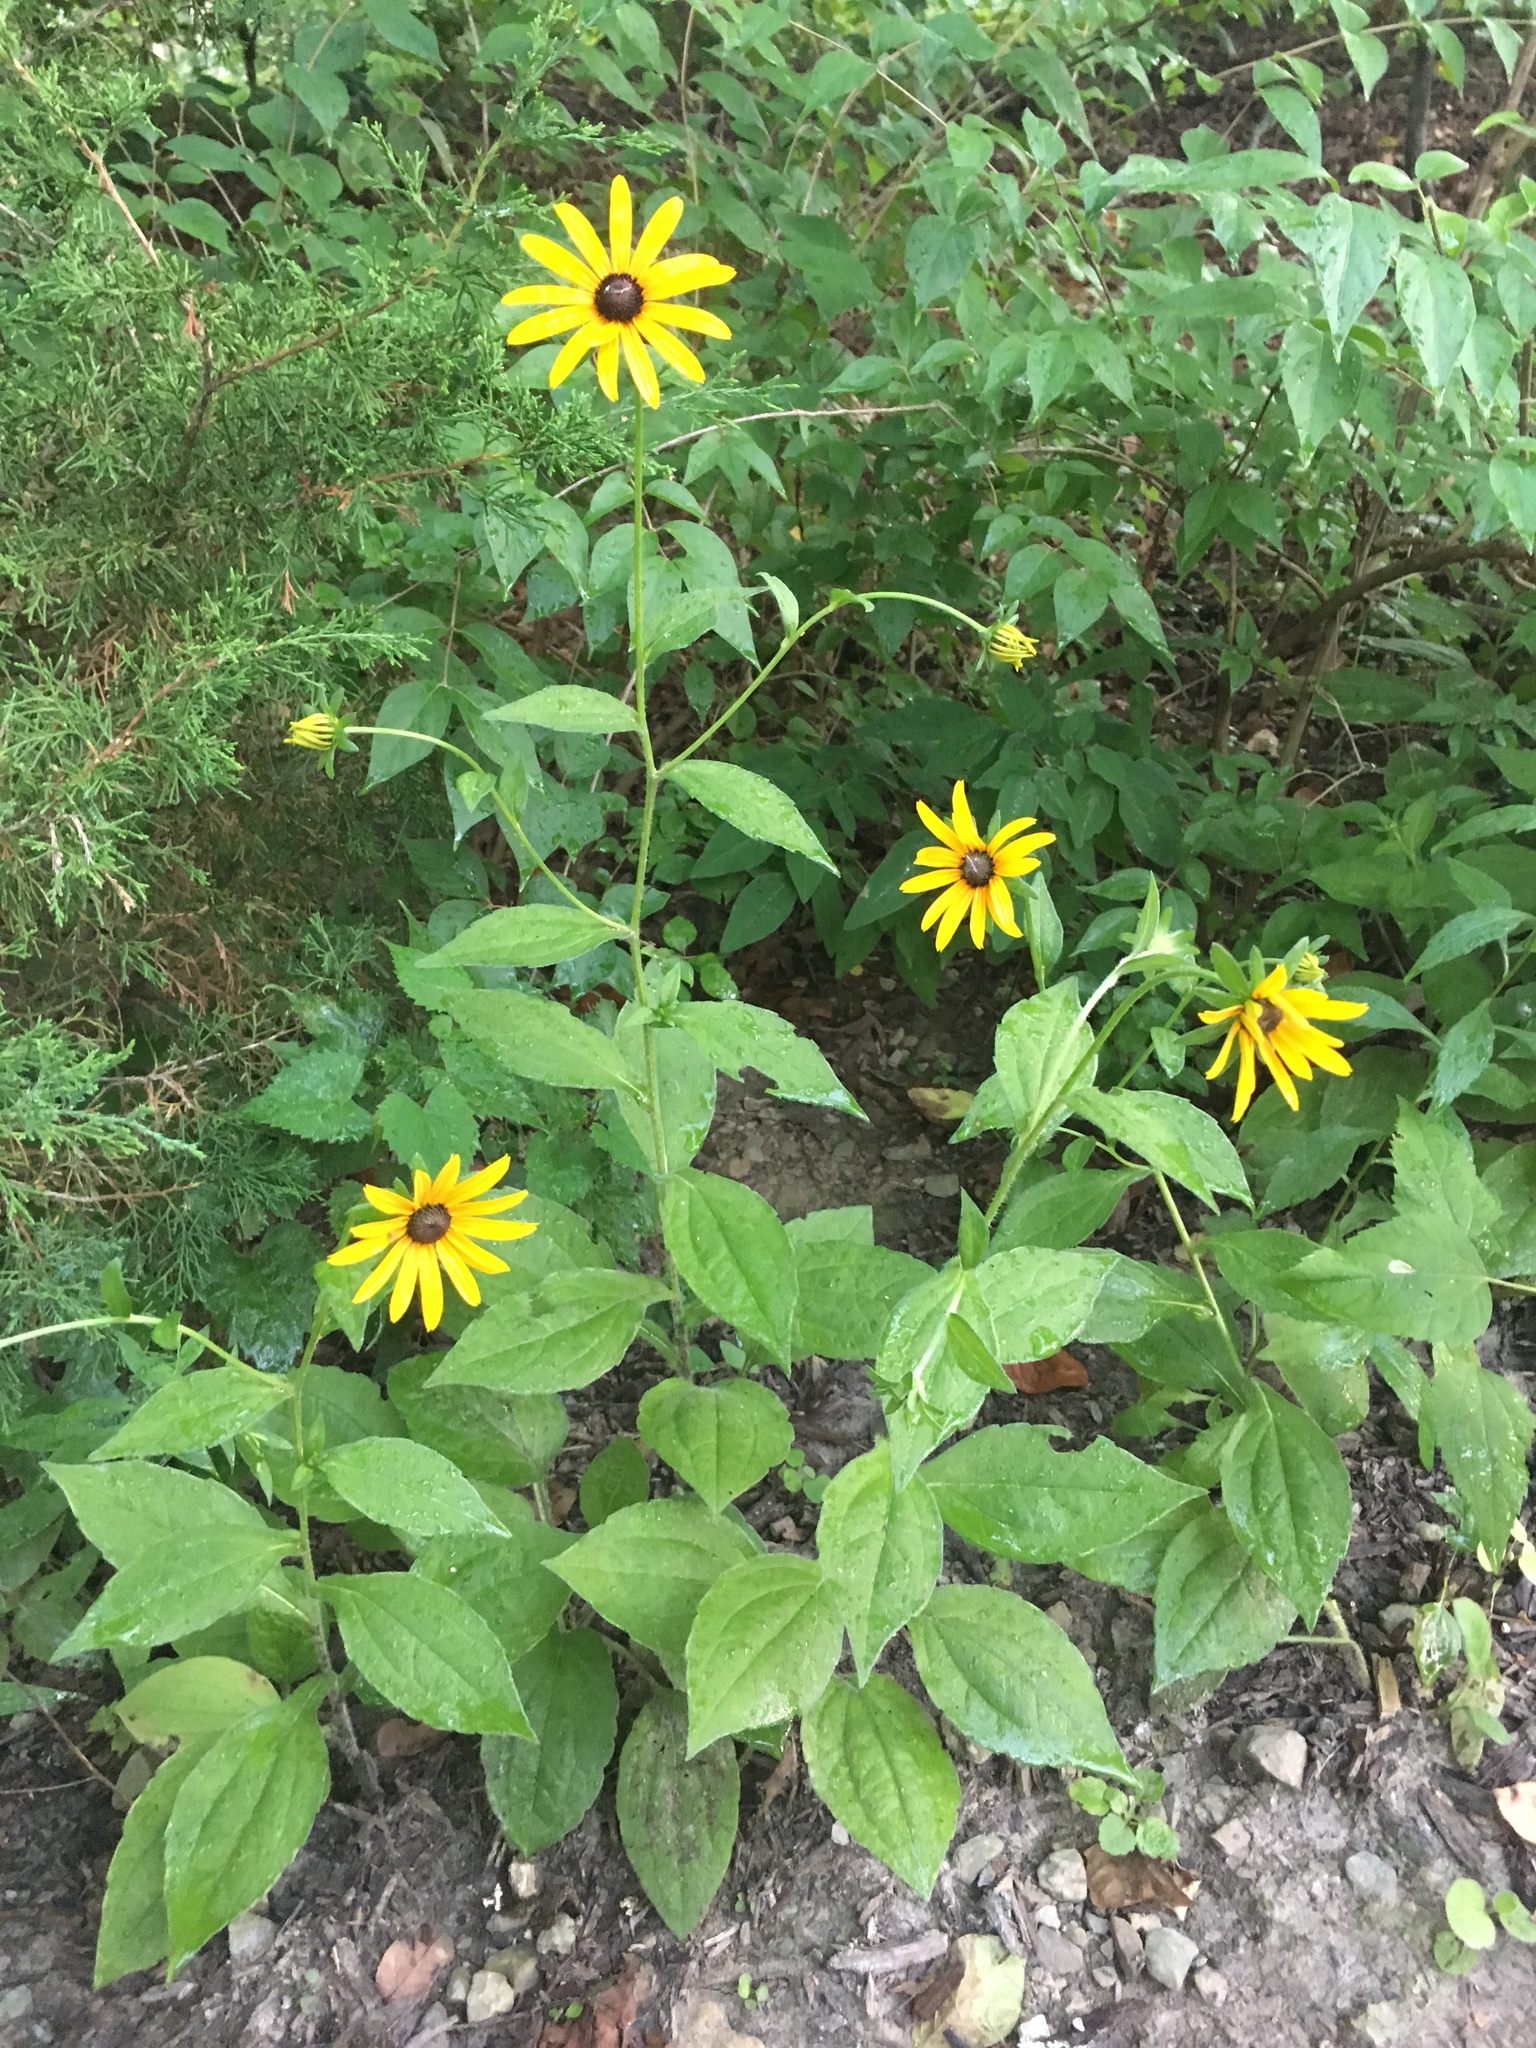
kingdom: Plantae
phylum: Tracheophyta
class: Magnoliopsida
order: Asterales
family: Asteraceae
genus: Rudbeckia
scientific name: Rudbeckia hirta
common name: Black-eyed-susan
